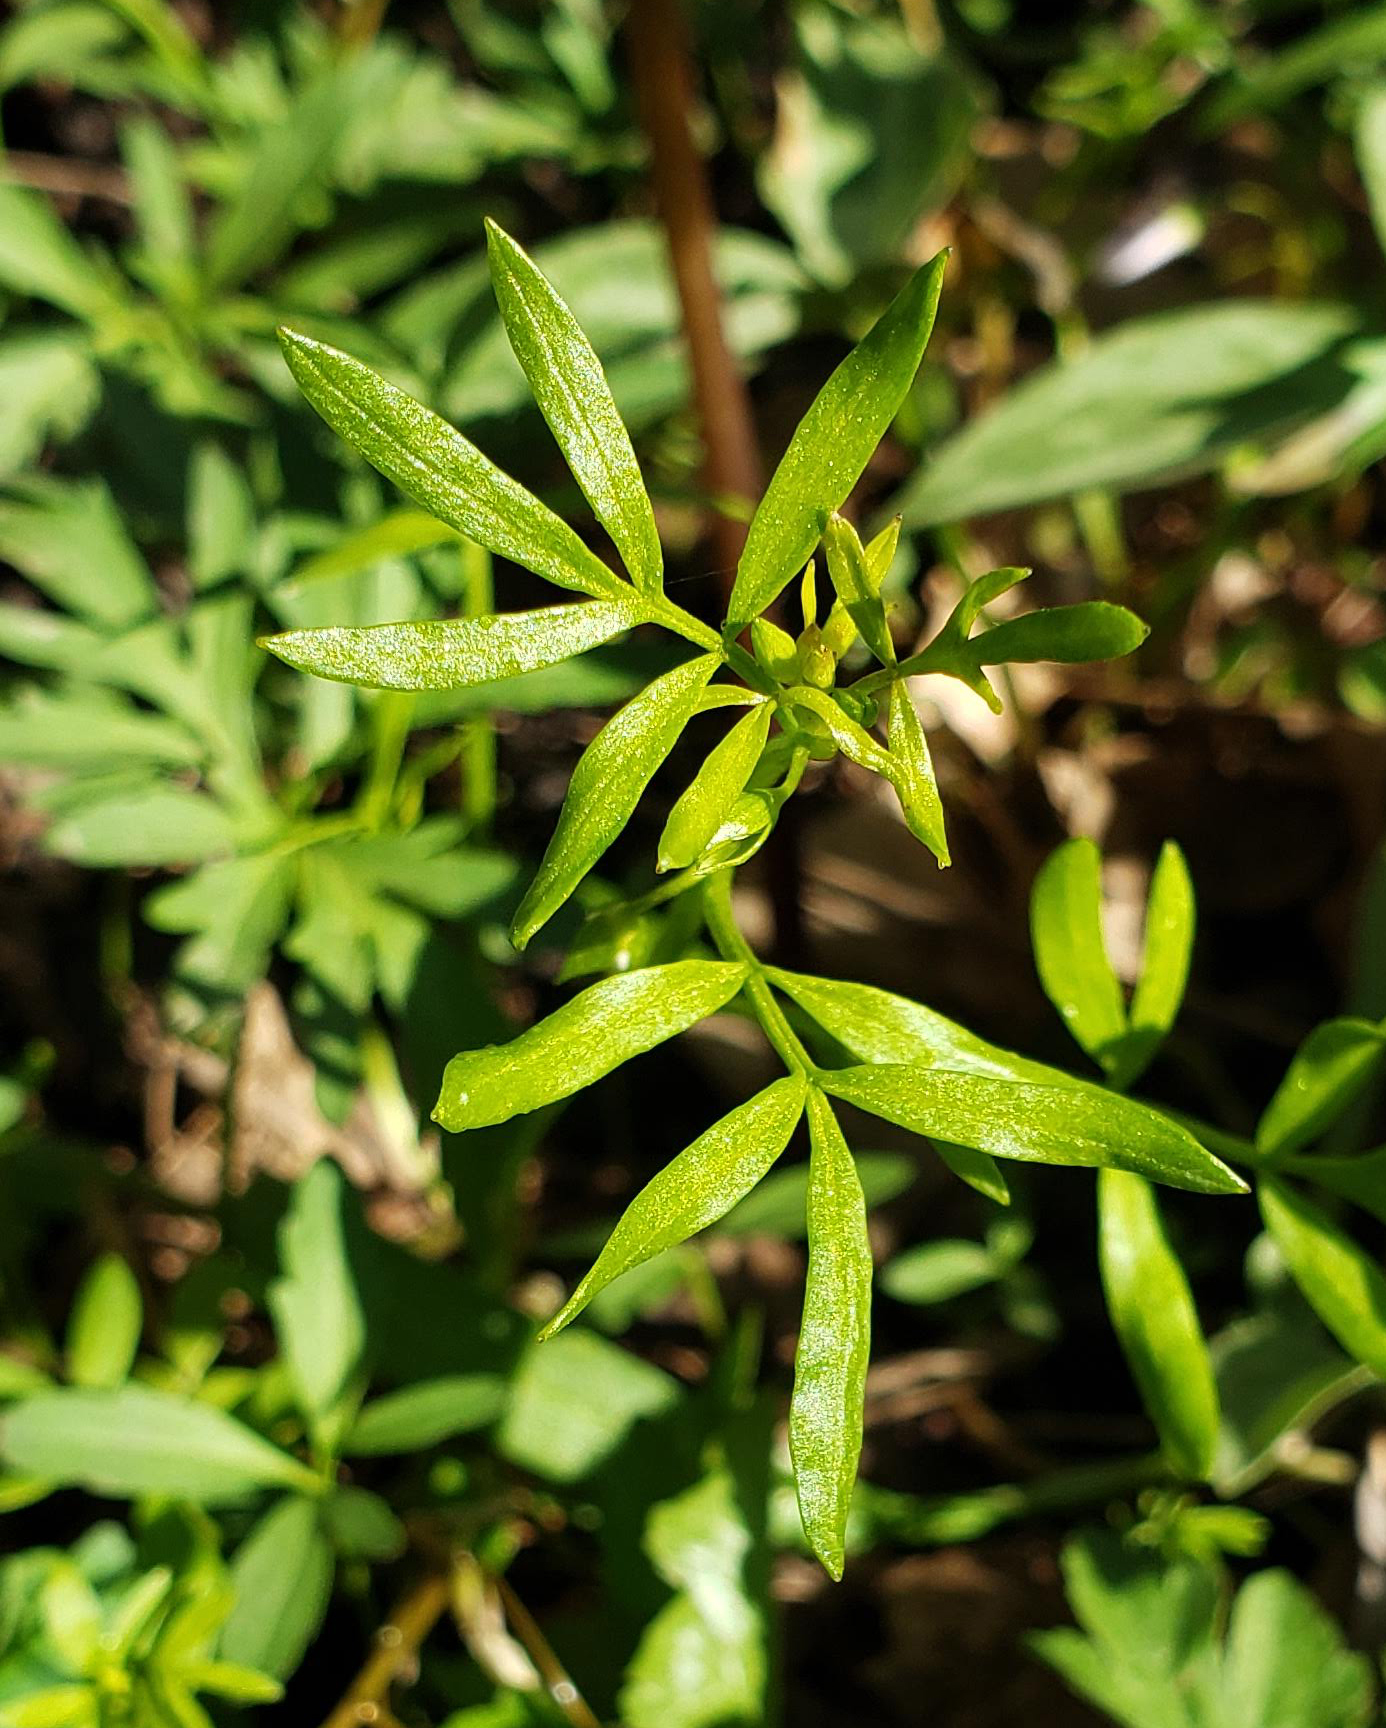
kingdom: Plantae
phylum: Tracheophyta
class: Magnoliopsida
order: Brassicales
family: Limnanthaceae
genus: Floerkea
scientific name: Floerkea proserpinacoides
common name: False mermaid
